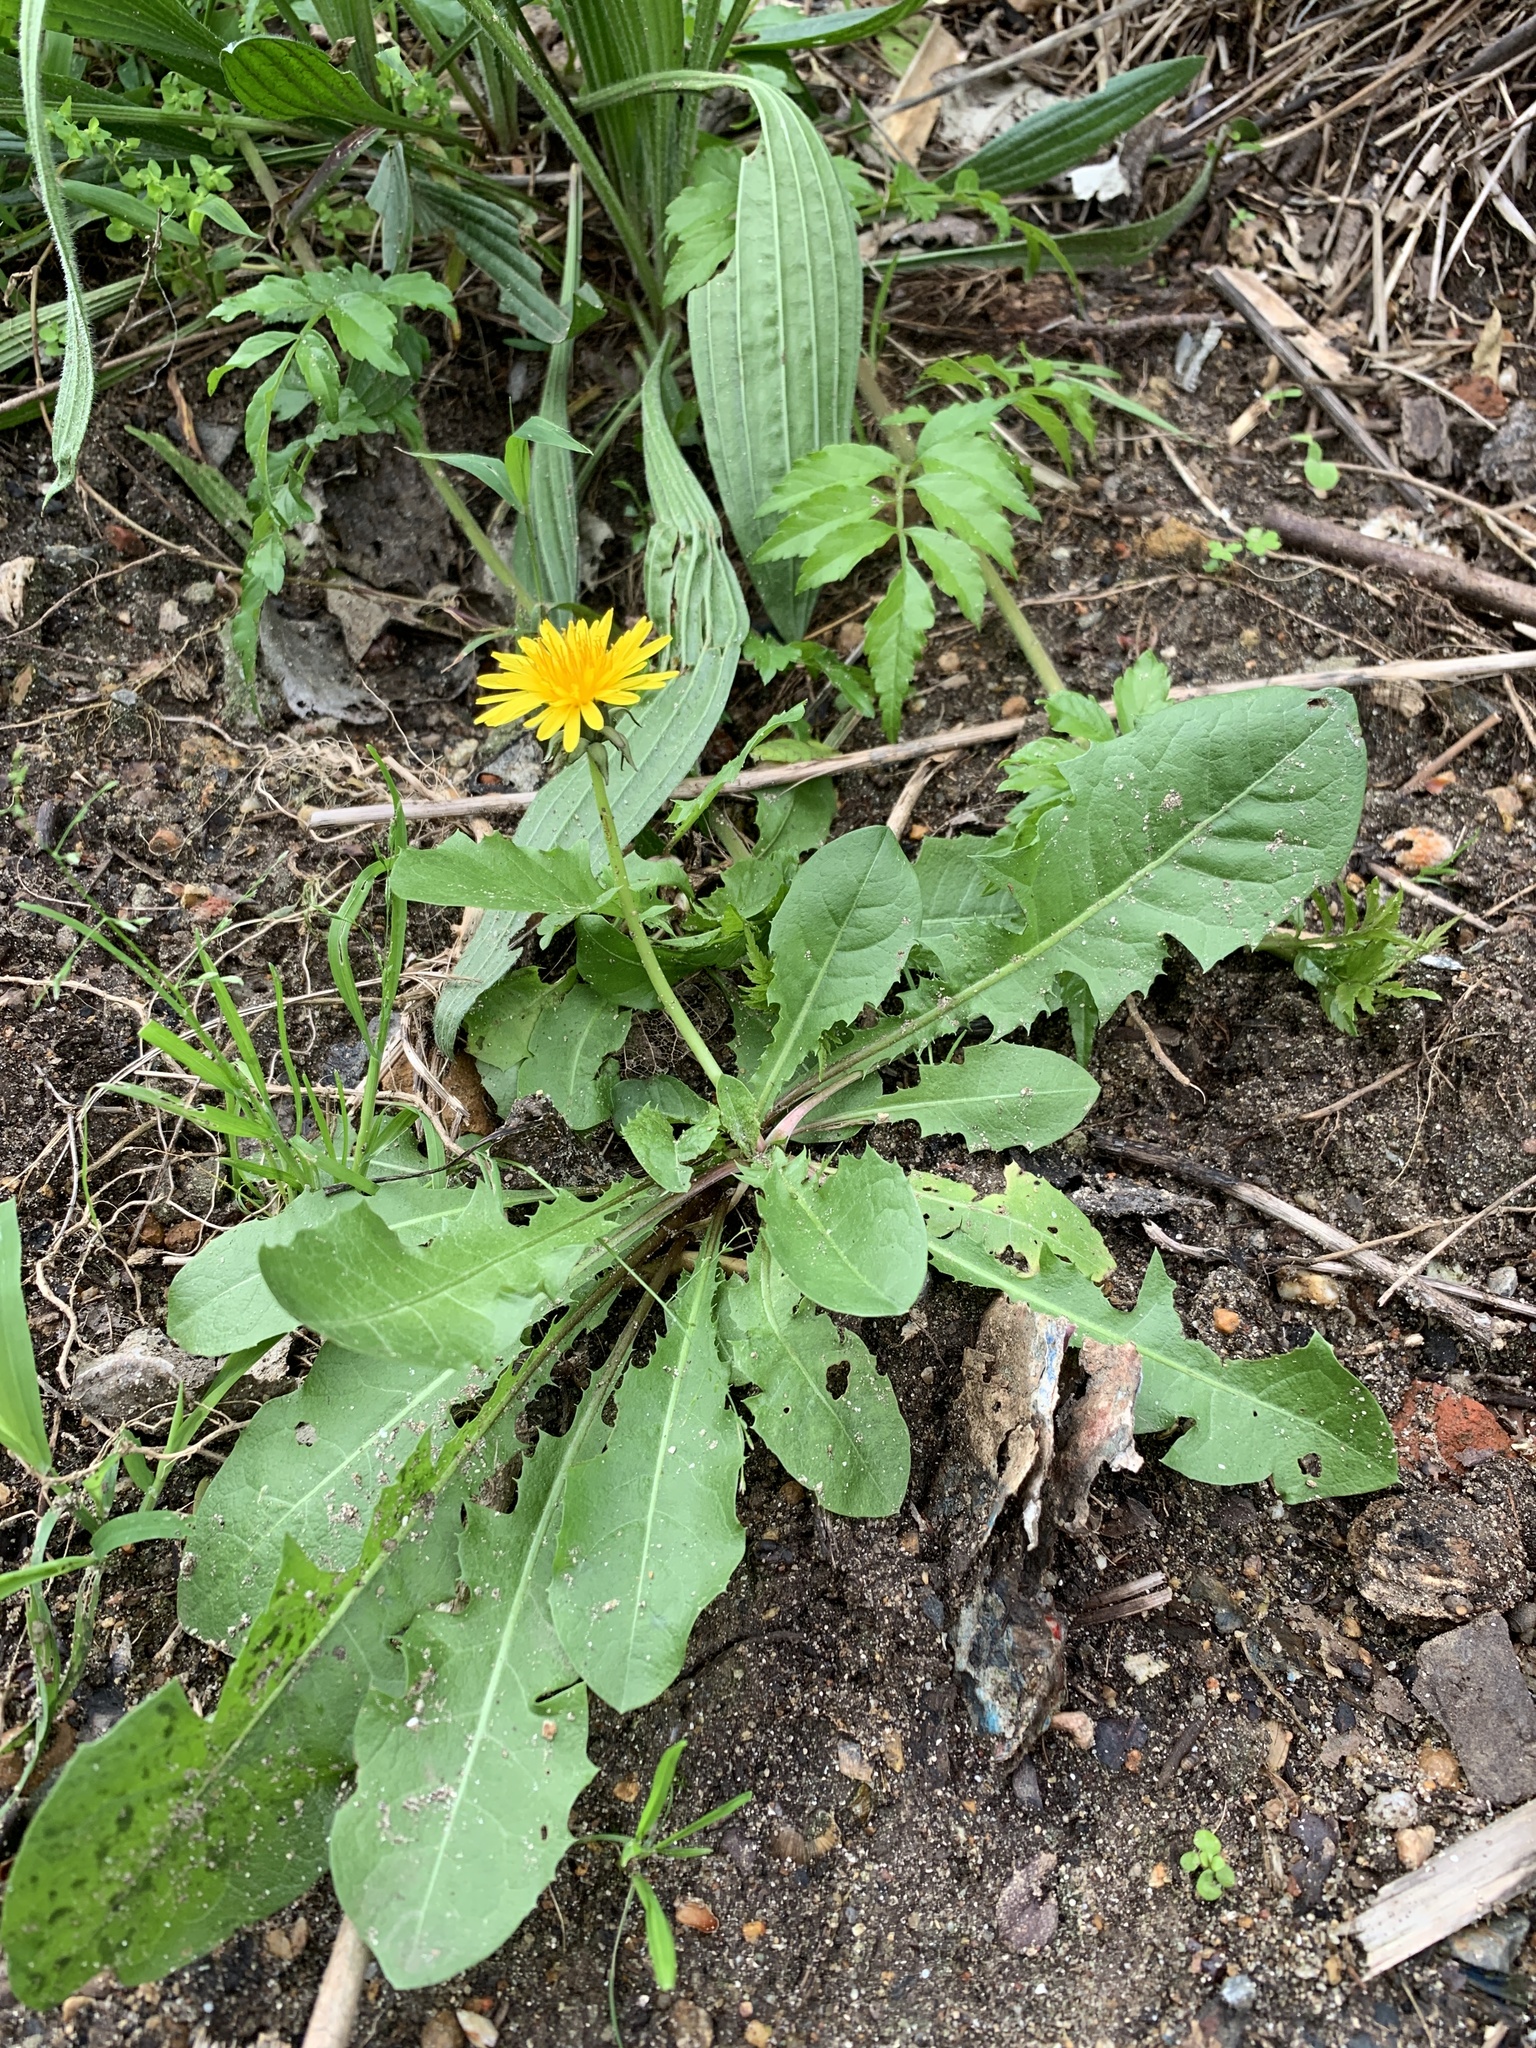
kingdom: Plantae
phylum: Tracheophyta
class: Magnoliopsida
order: Asterales
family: Asteraceae
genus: Taraxacum
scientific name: Taraxacum officinale
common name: Common dandelion
